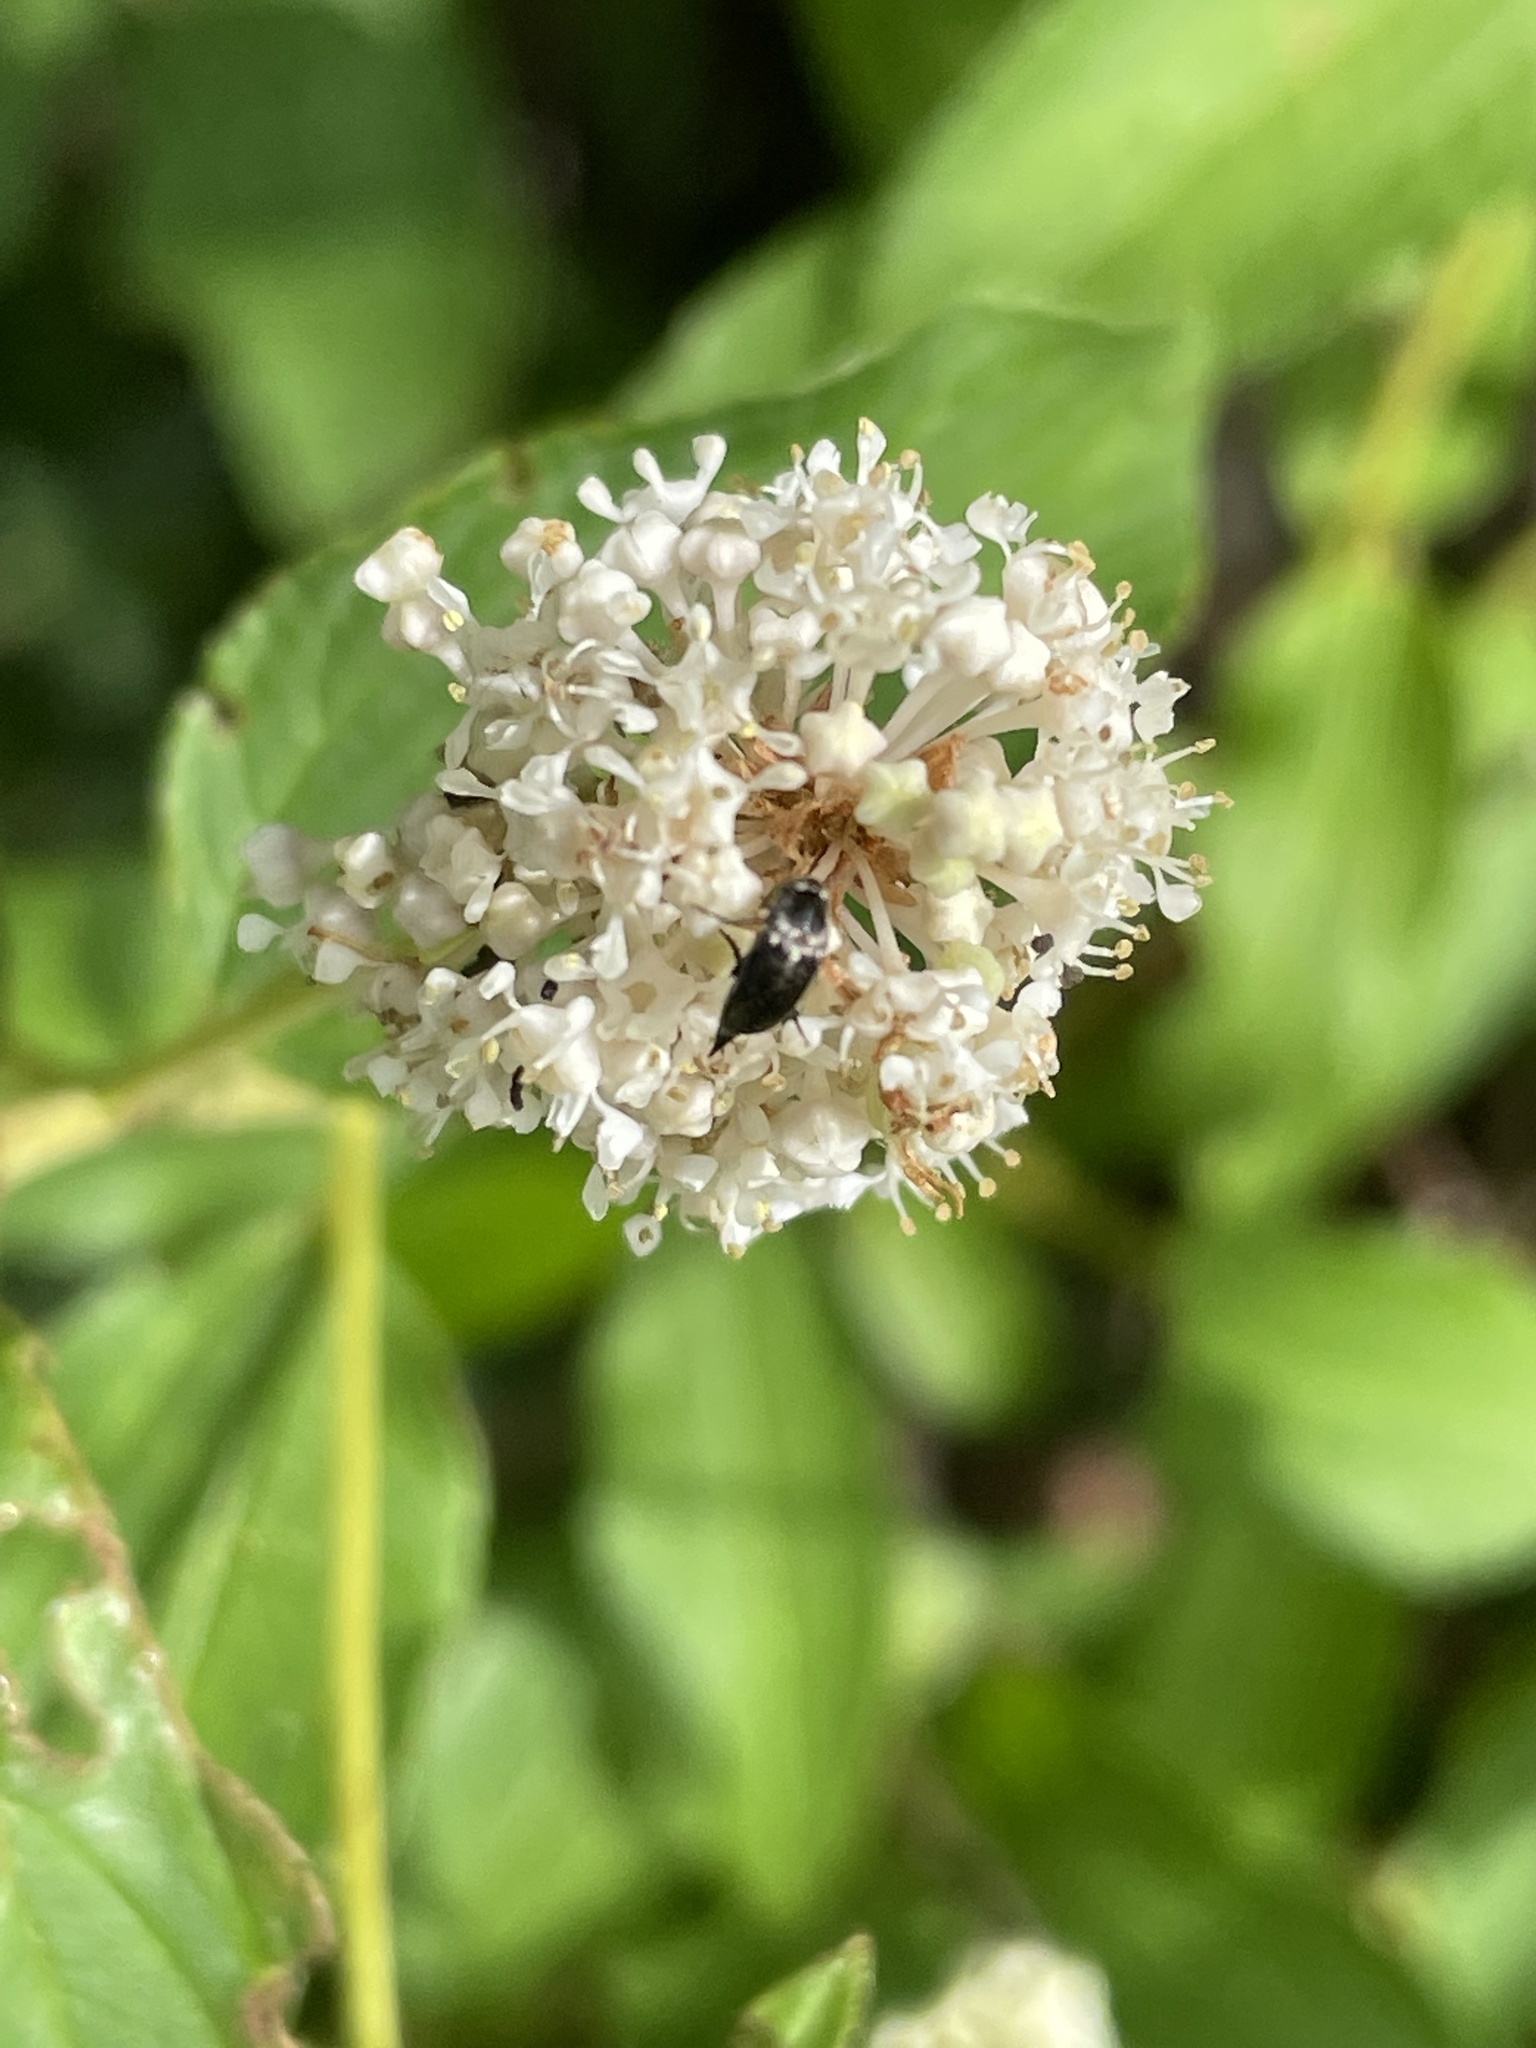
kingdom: Plantae
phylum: Tracheophyta
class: Magnoliopsida
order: Rosales
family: Rhamnaceae
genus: Ceanothus
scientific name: Ceanothus americanus
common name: Redroot
